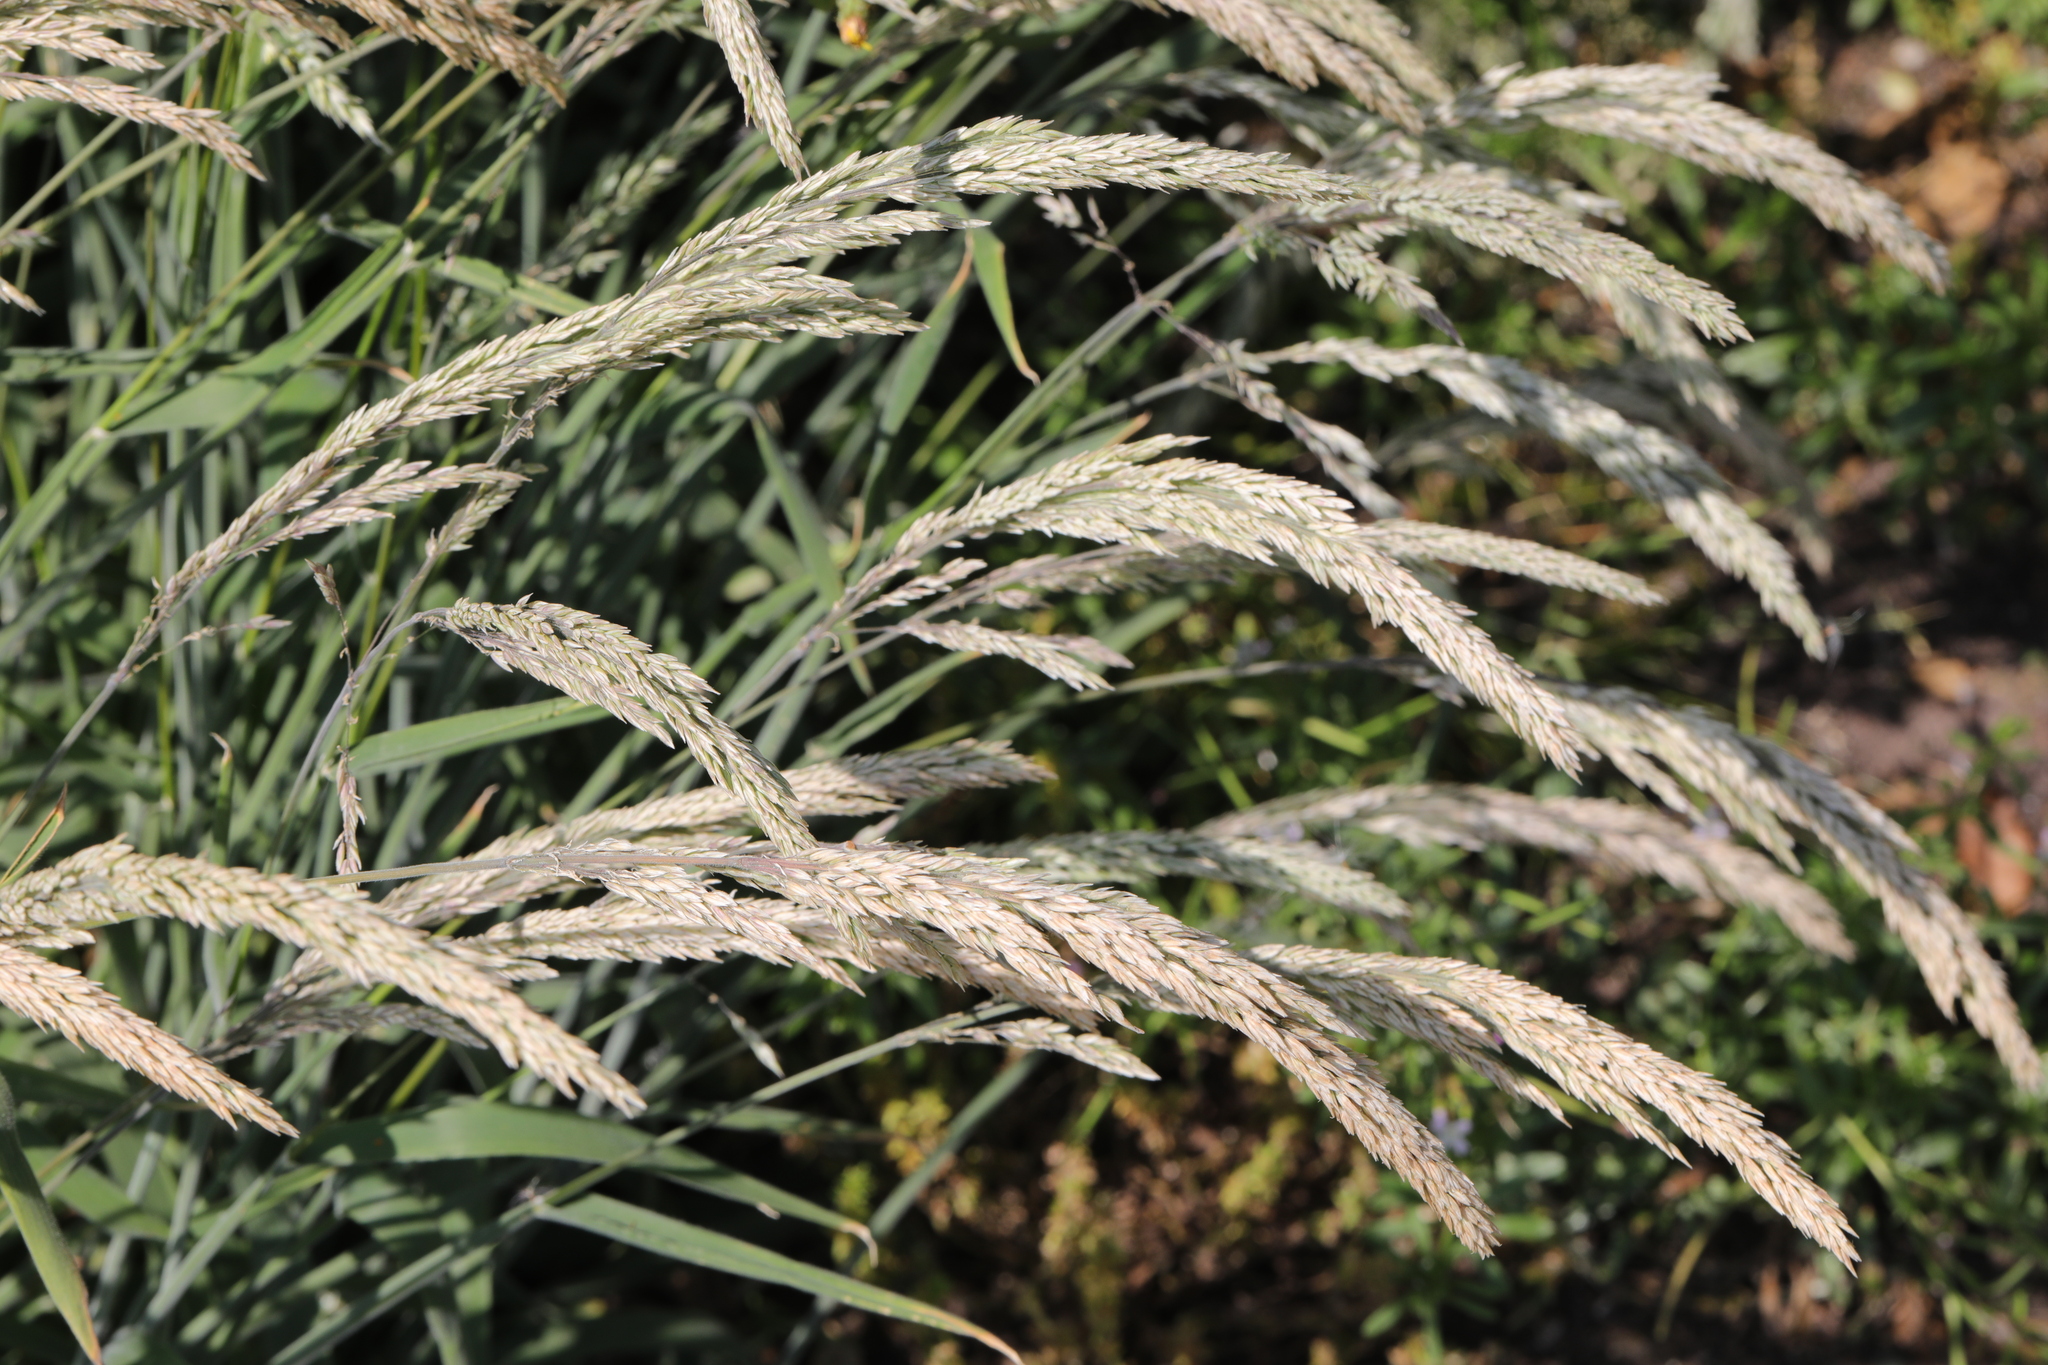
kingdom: Plantae
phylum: Tracheophyta
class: Liliopsida
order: Poales
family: Poaceae
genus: Holcus
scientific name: Holcus lanatus
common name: Yorkshire-fog
